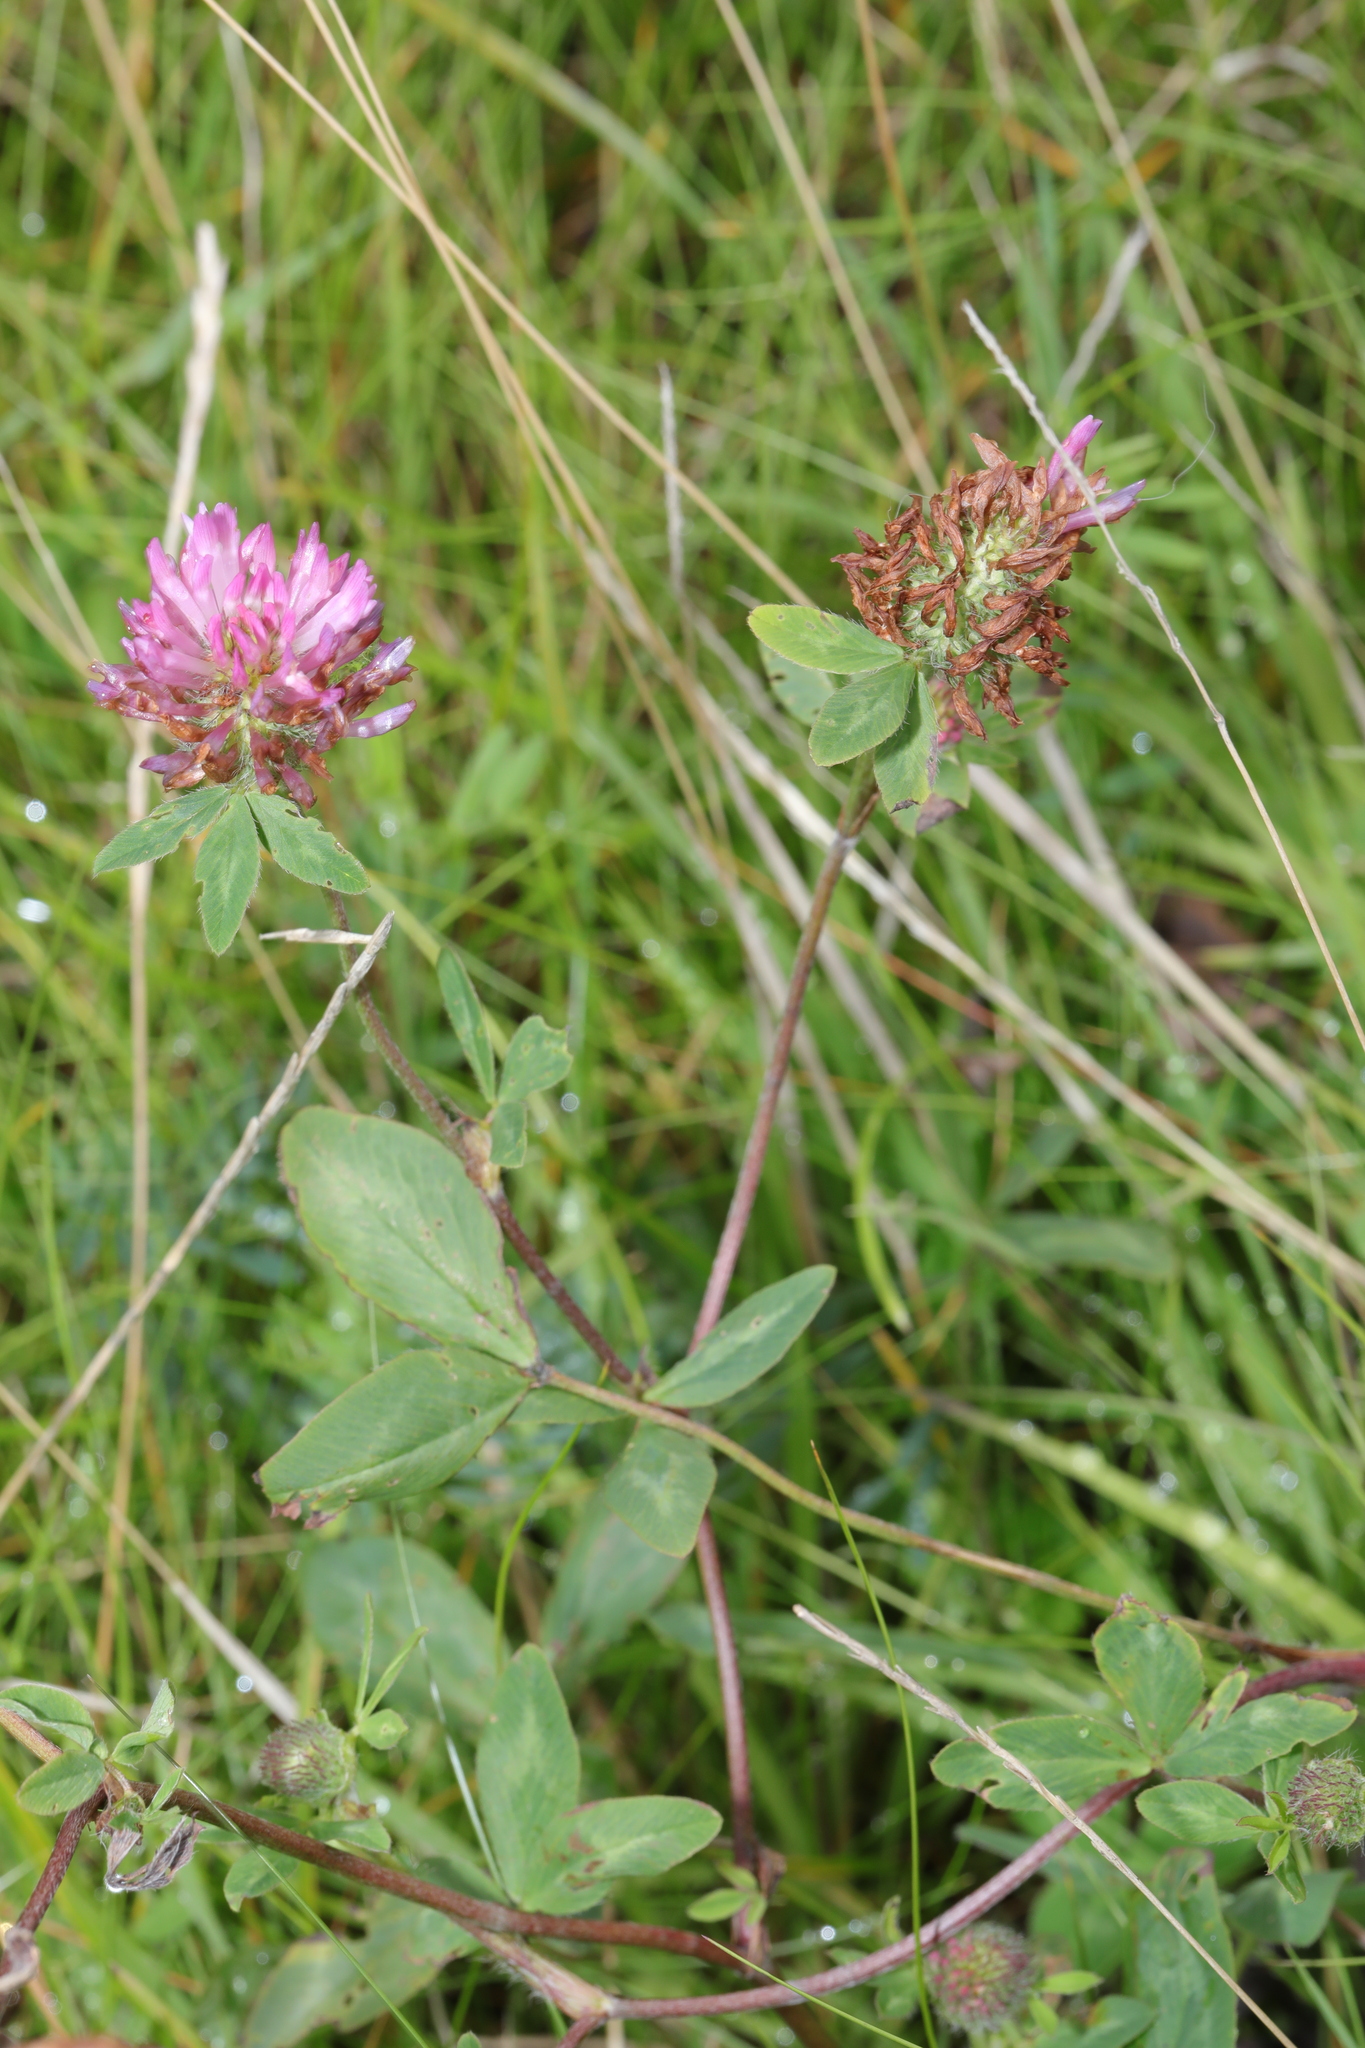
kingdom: Plantae
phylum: Tracheophyta
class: Magnoliopsida
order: Fabales
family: Fabaceae
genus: Trifolium
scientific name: Trifolium pratense
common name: Red clover
